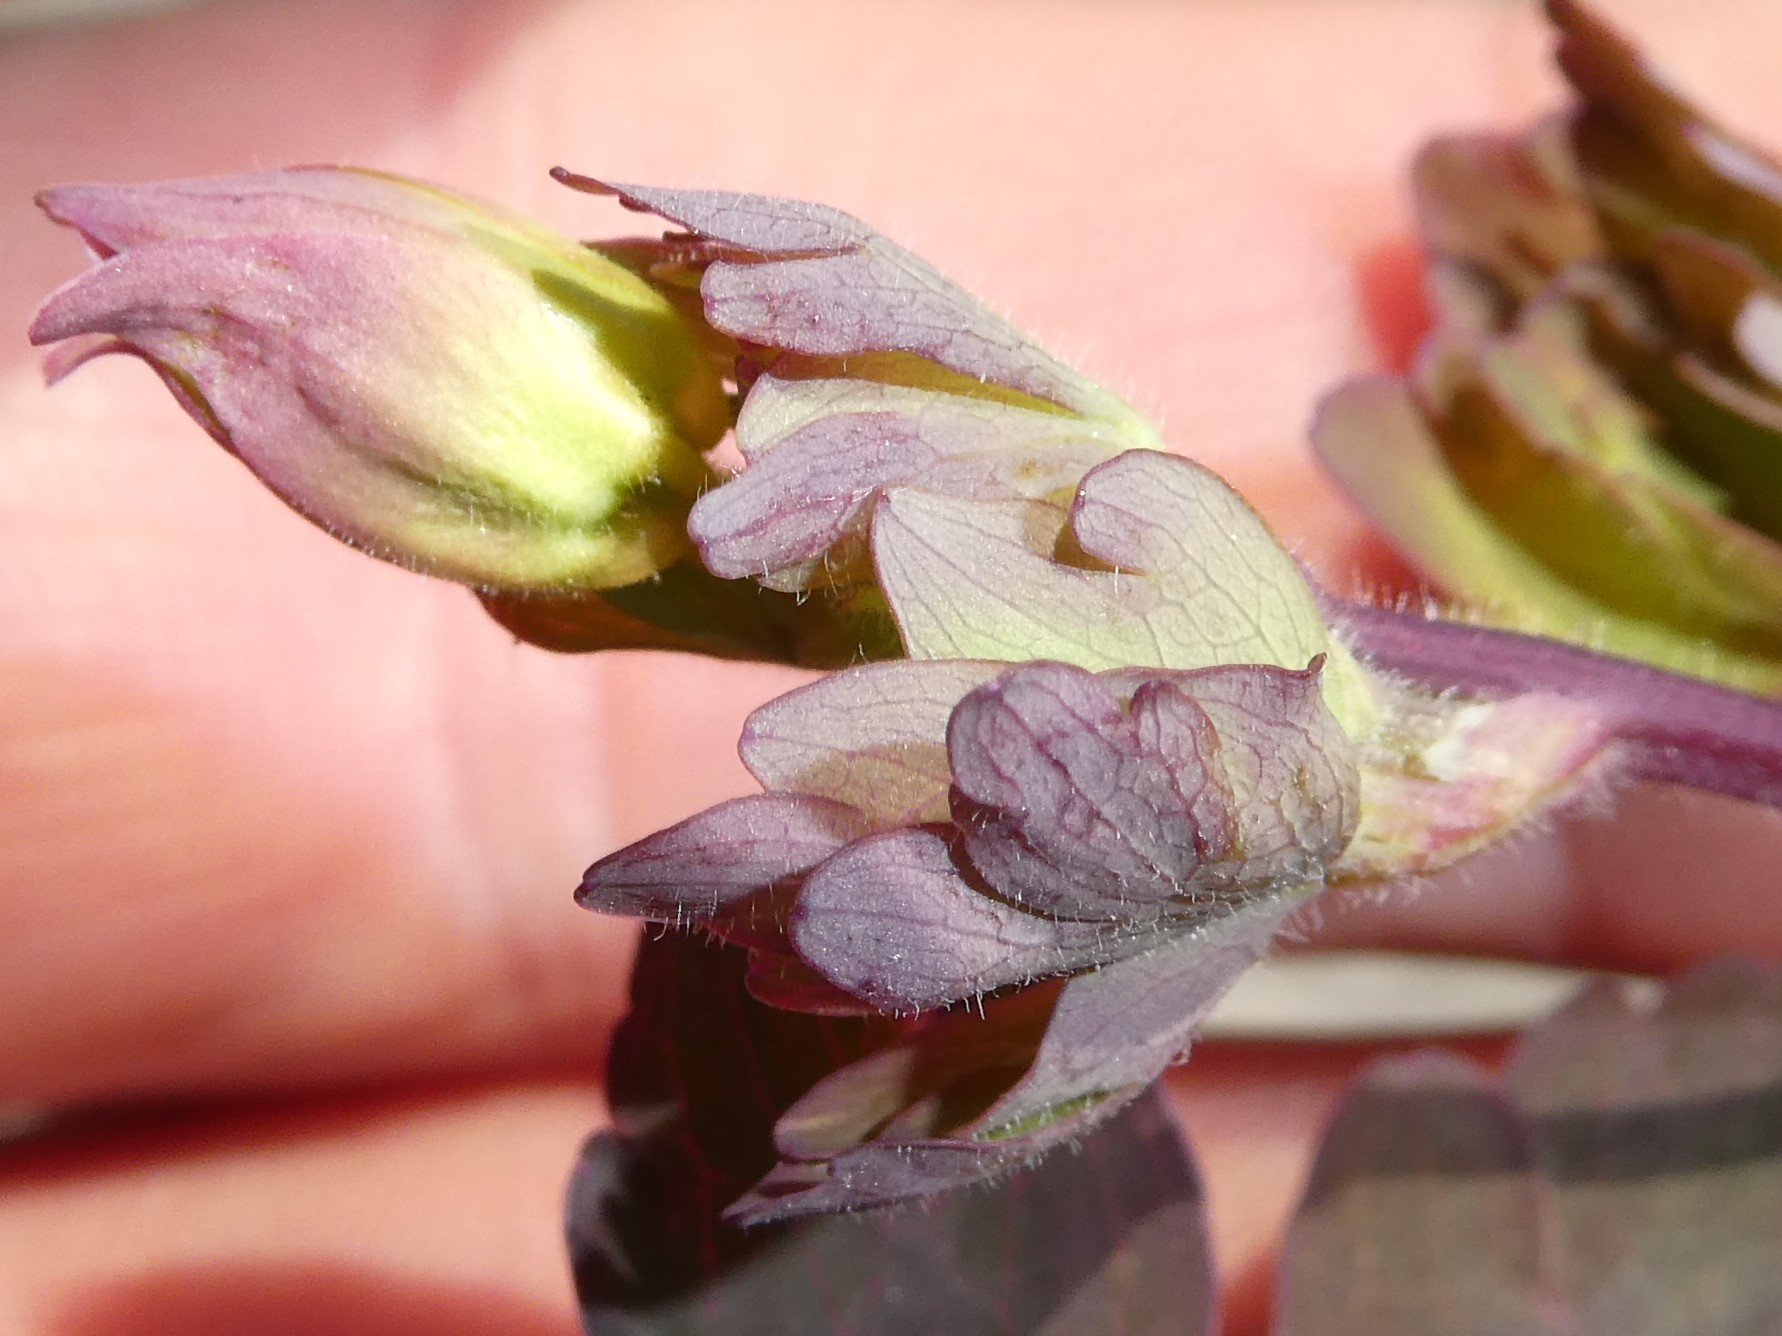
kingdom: Plantae
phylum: Tracheophyta
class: Magnoliopsida
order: Ranunculales
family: Ranunculaceae
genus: Aquilegia
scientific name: Aquilegia canadensis
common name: American columbine
